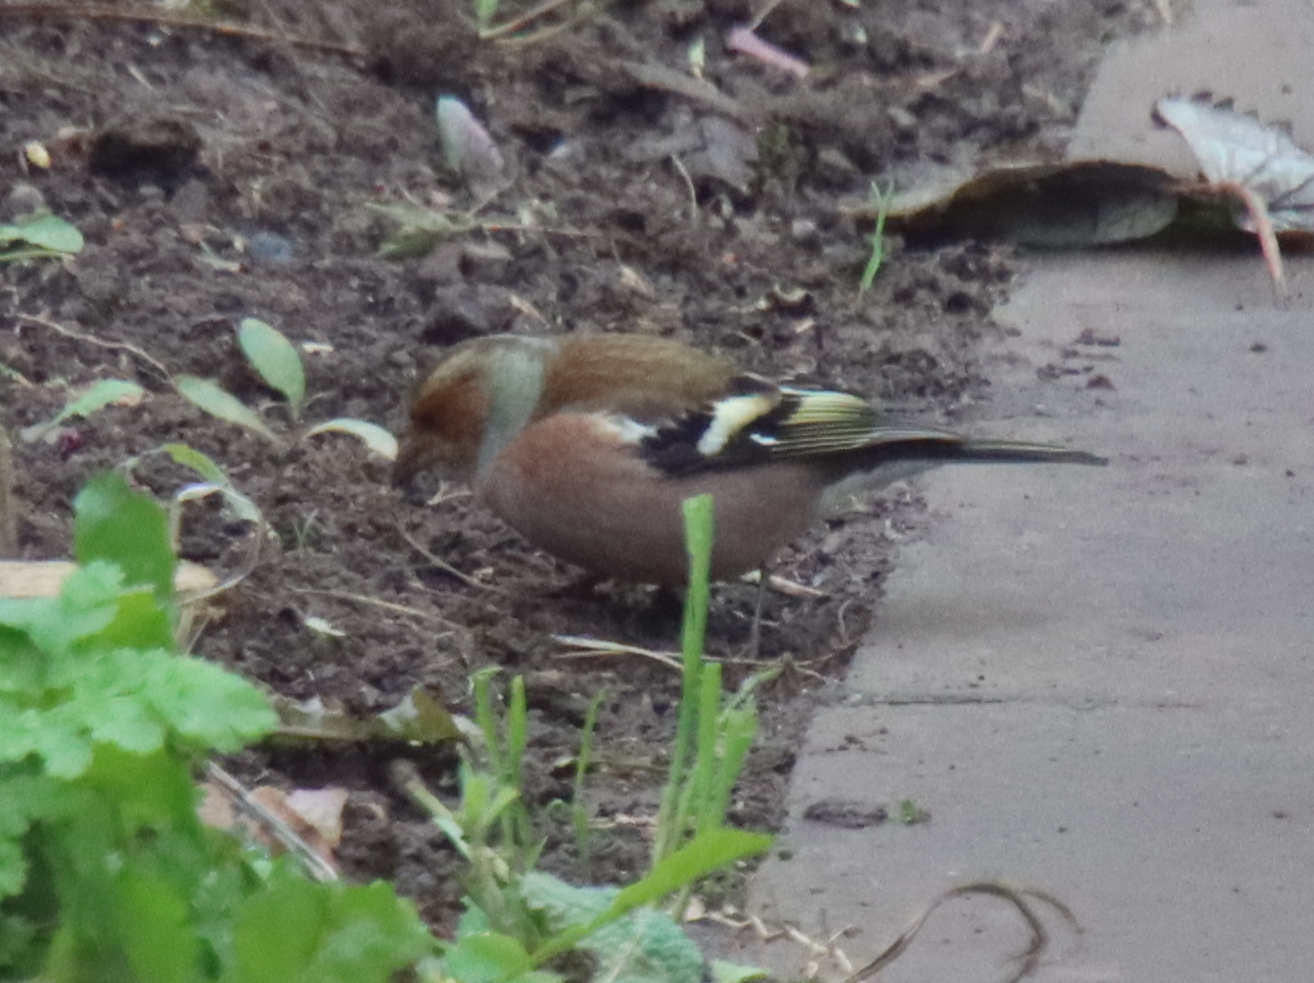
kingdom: Animalia
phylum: Chordata
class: Aves
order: Passeriformes
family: Fringillidae
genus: Fringilla
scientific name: Fringilla coelebs
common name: Common chaffinch
